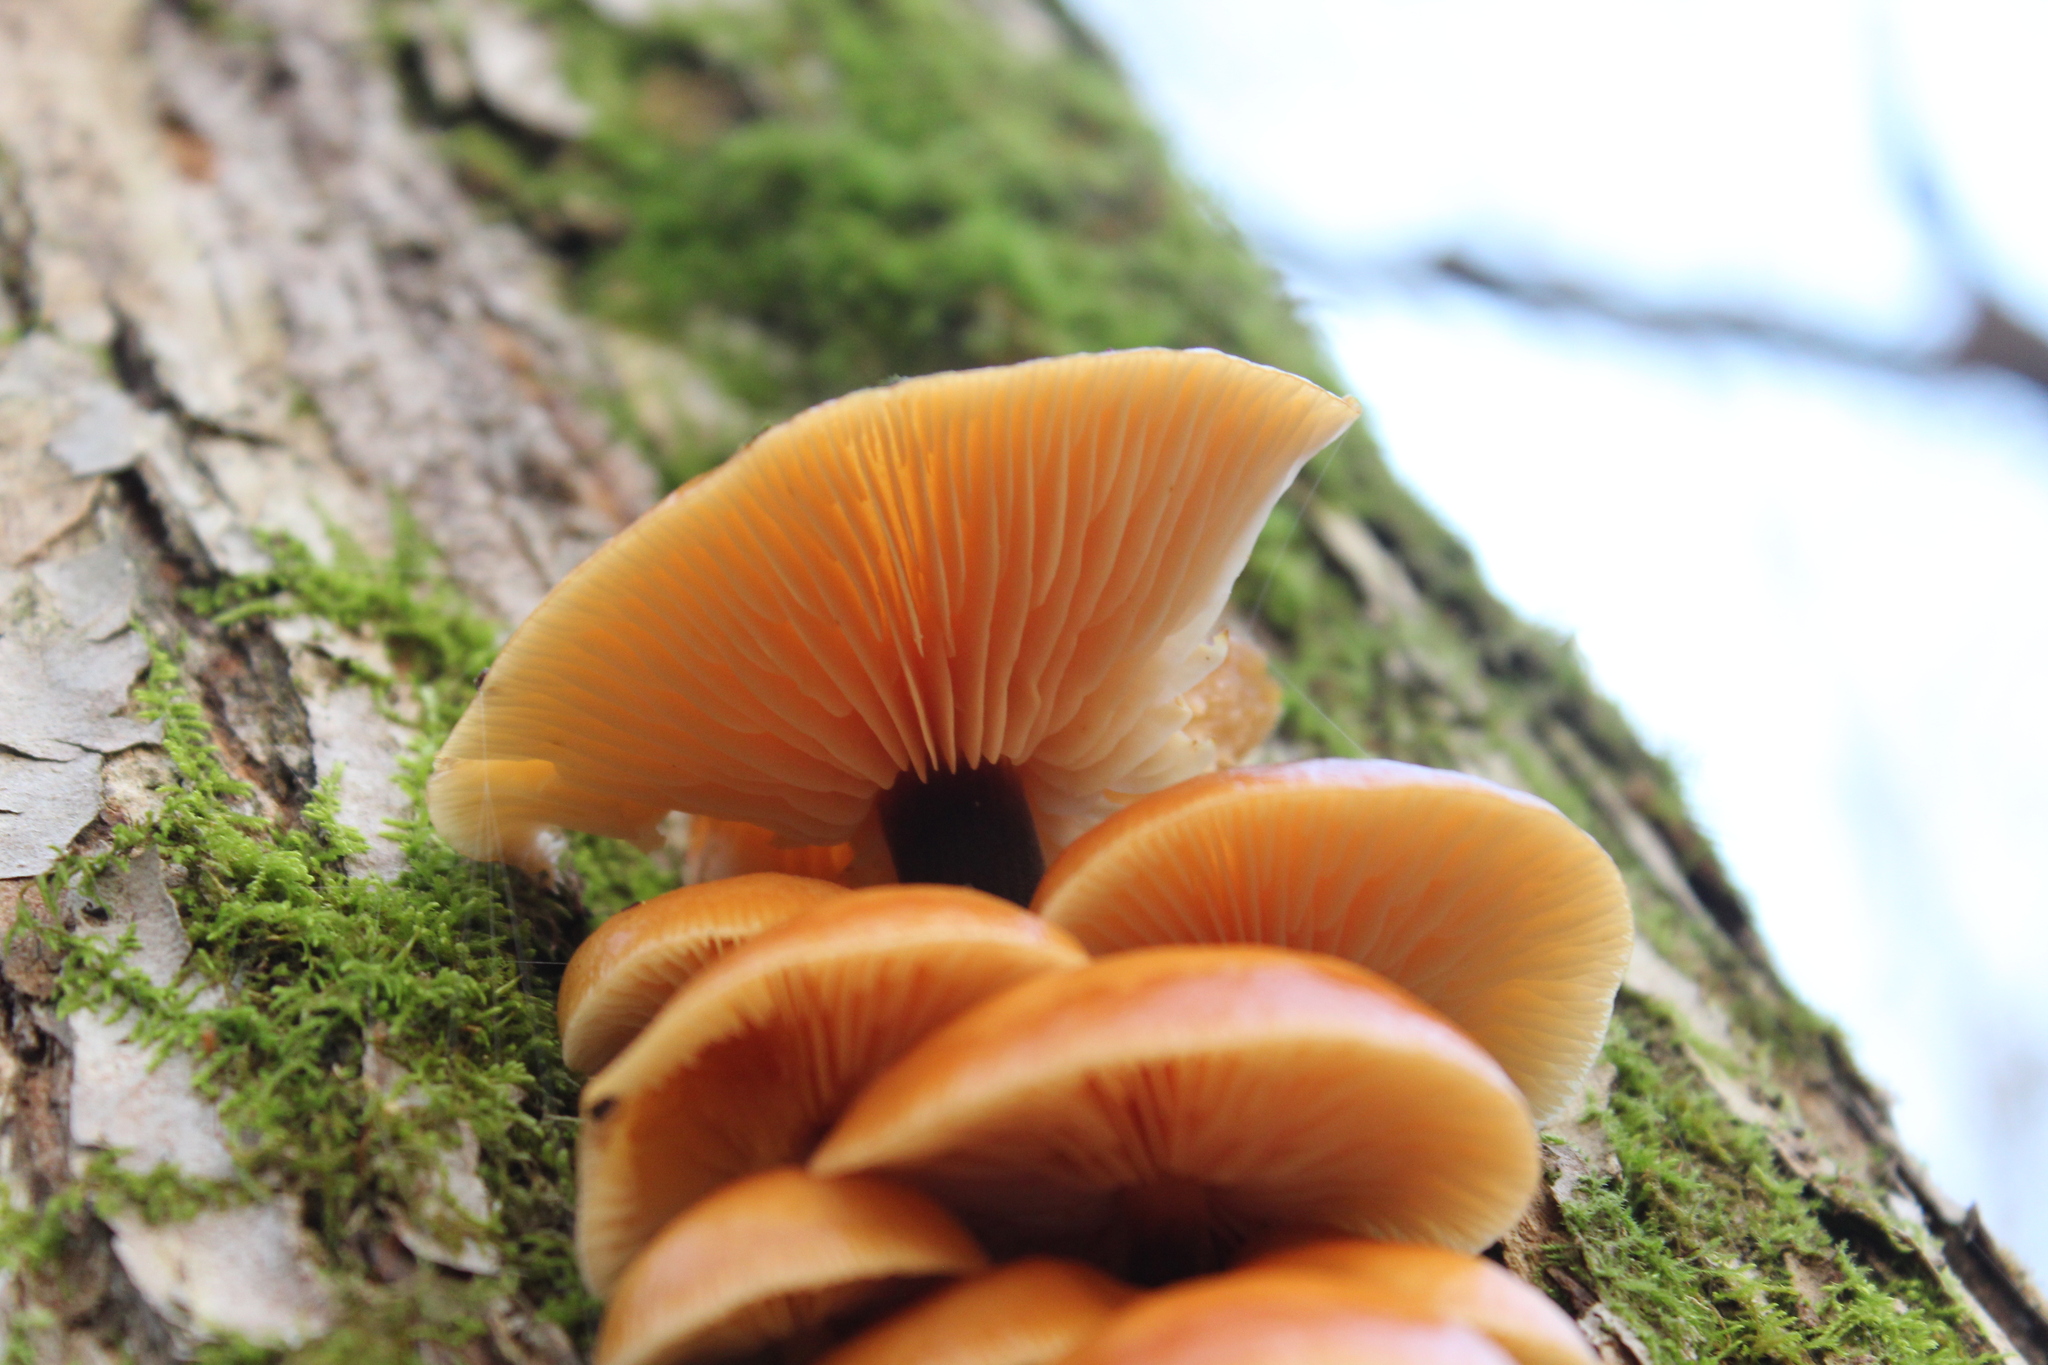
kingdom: Fungi
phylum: Basidiomycota
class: Agaricomycetes
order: Agaricales
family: Physalacriaceae
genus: Flammulina
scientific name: Flammulina
